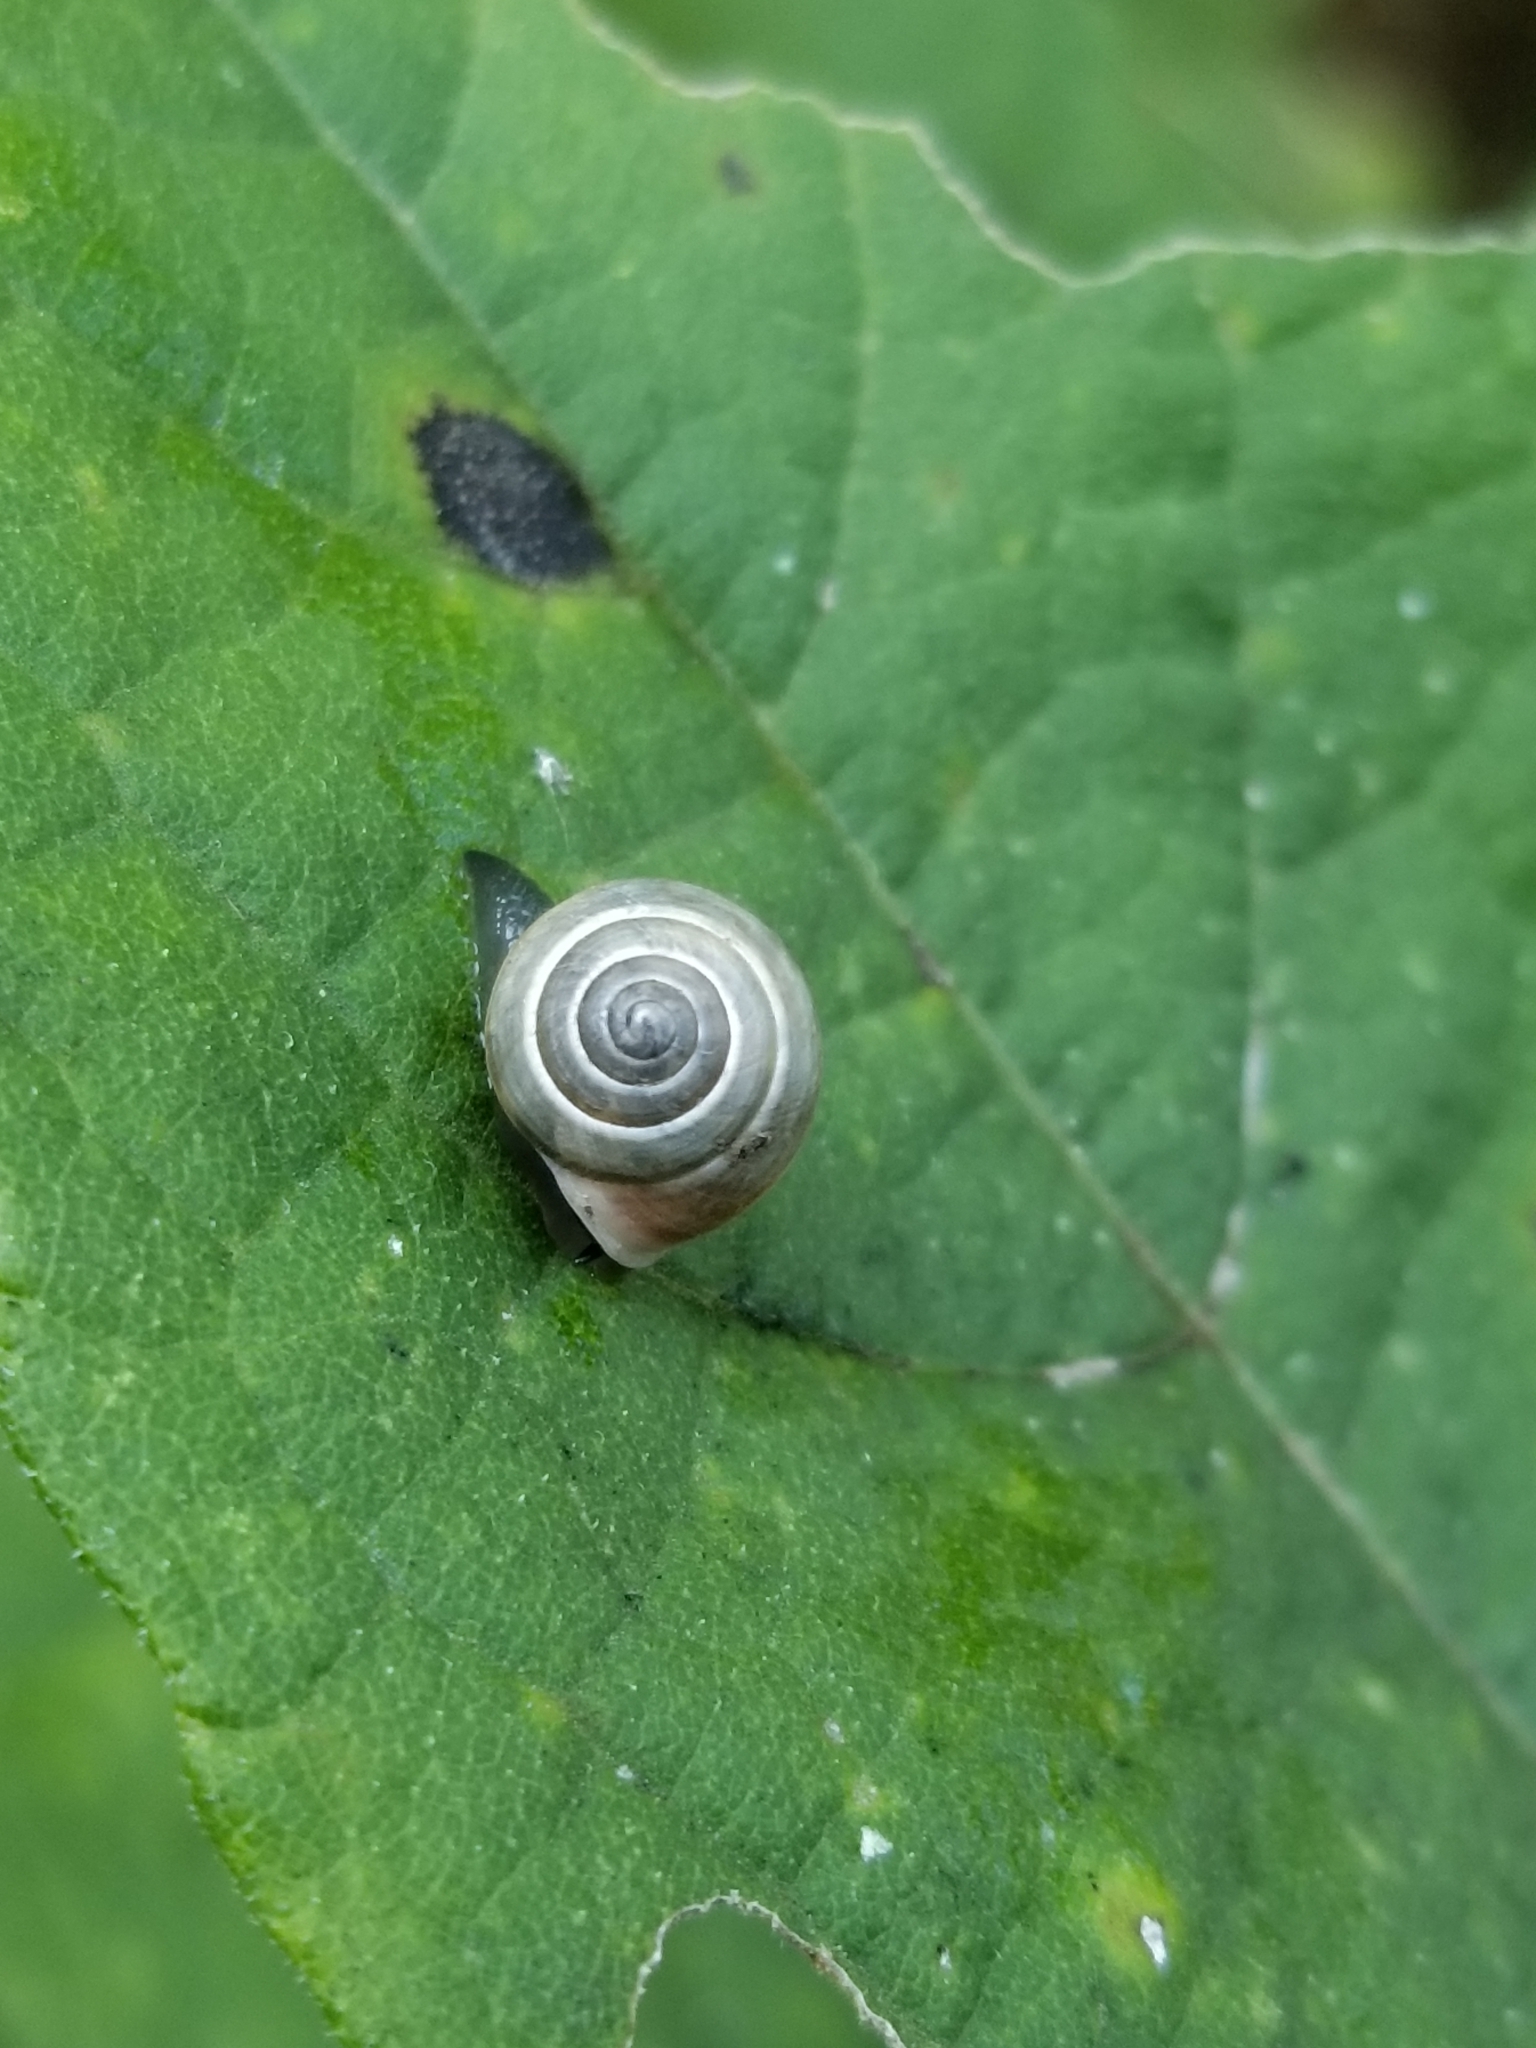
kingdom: Animalia
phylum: Mollusca
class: Gastropoda
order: Cycloneritida
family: Helicinidae
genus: Helicina
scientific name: Helicina orbiculata
